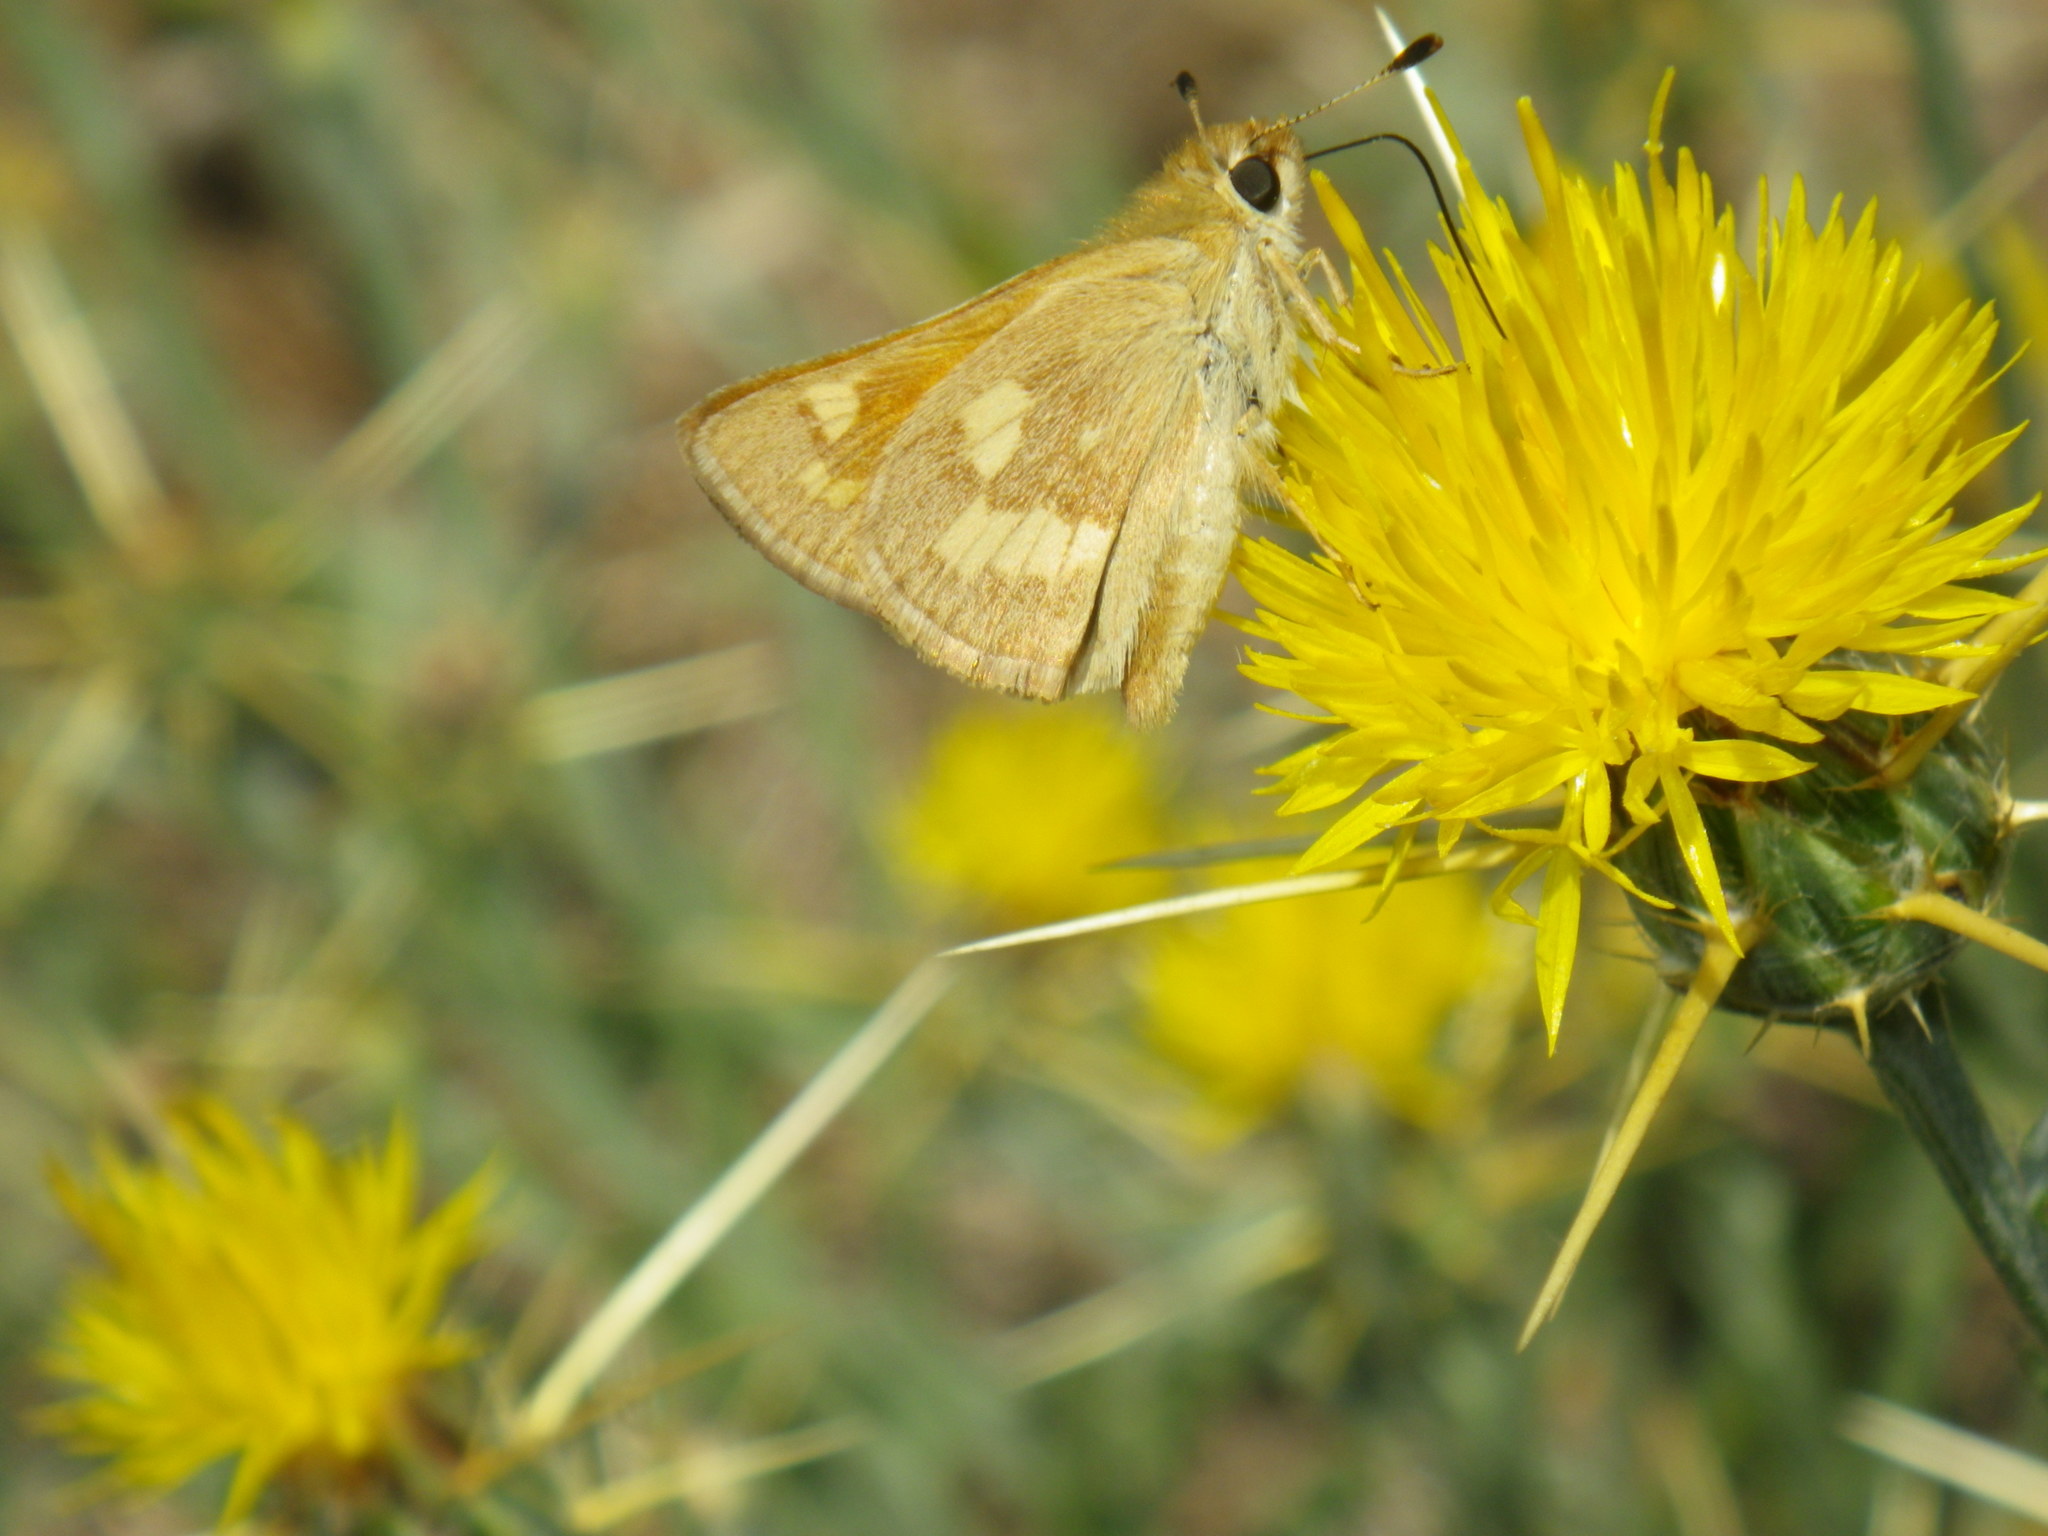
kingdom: Animalia
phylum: Arthropoda
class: Insecta
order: Lepidoptera
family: Hesperiidae
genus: Ochlodes
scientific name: Ochlodes sylvanoides
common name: Woodland skipper
